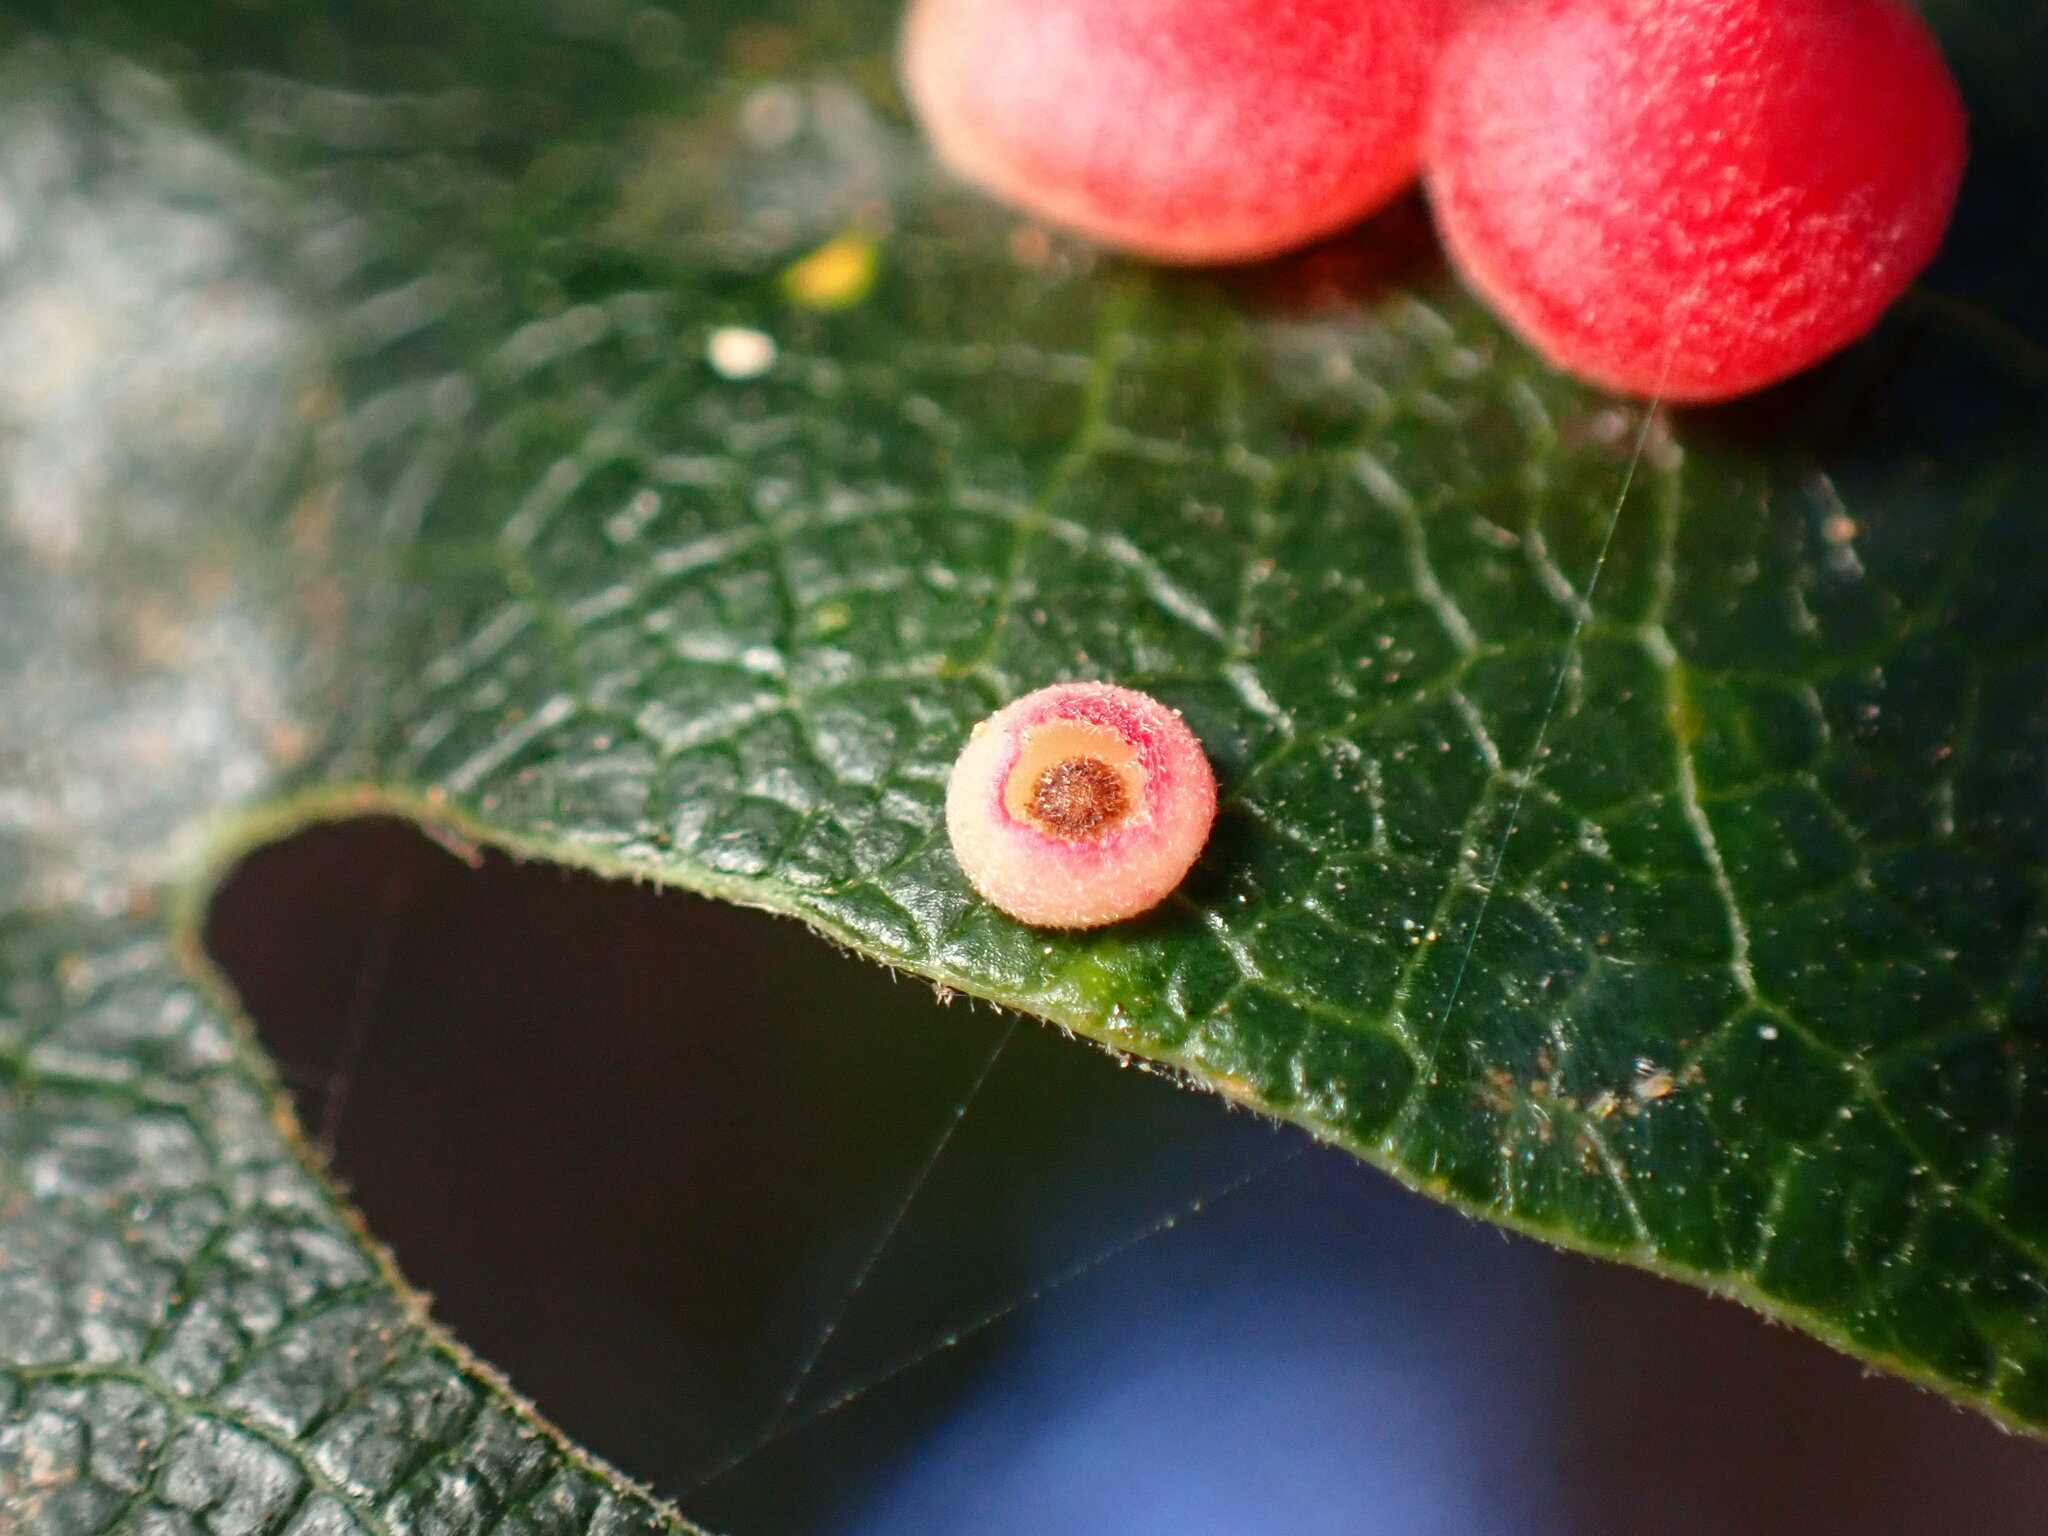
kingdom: Animalia
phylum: Arthropoda
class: Insecta
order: Hymenoptera
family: Cynipidae
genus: Andricus
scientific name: Andricus
